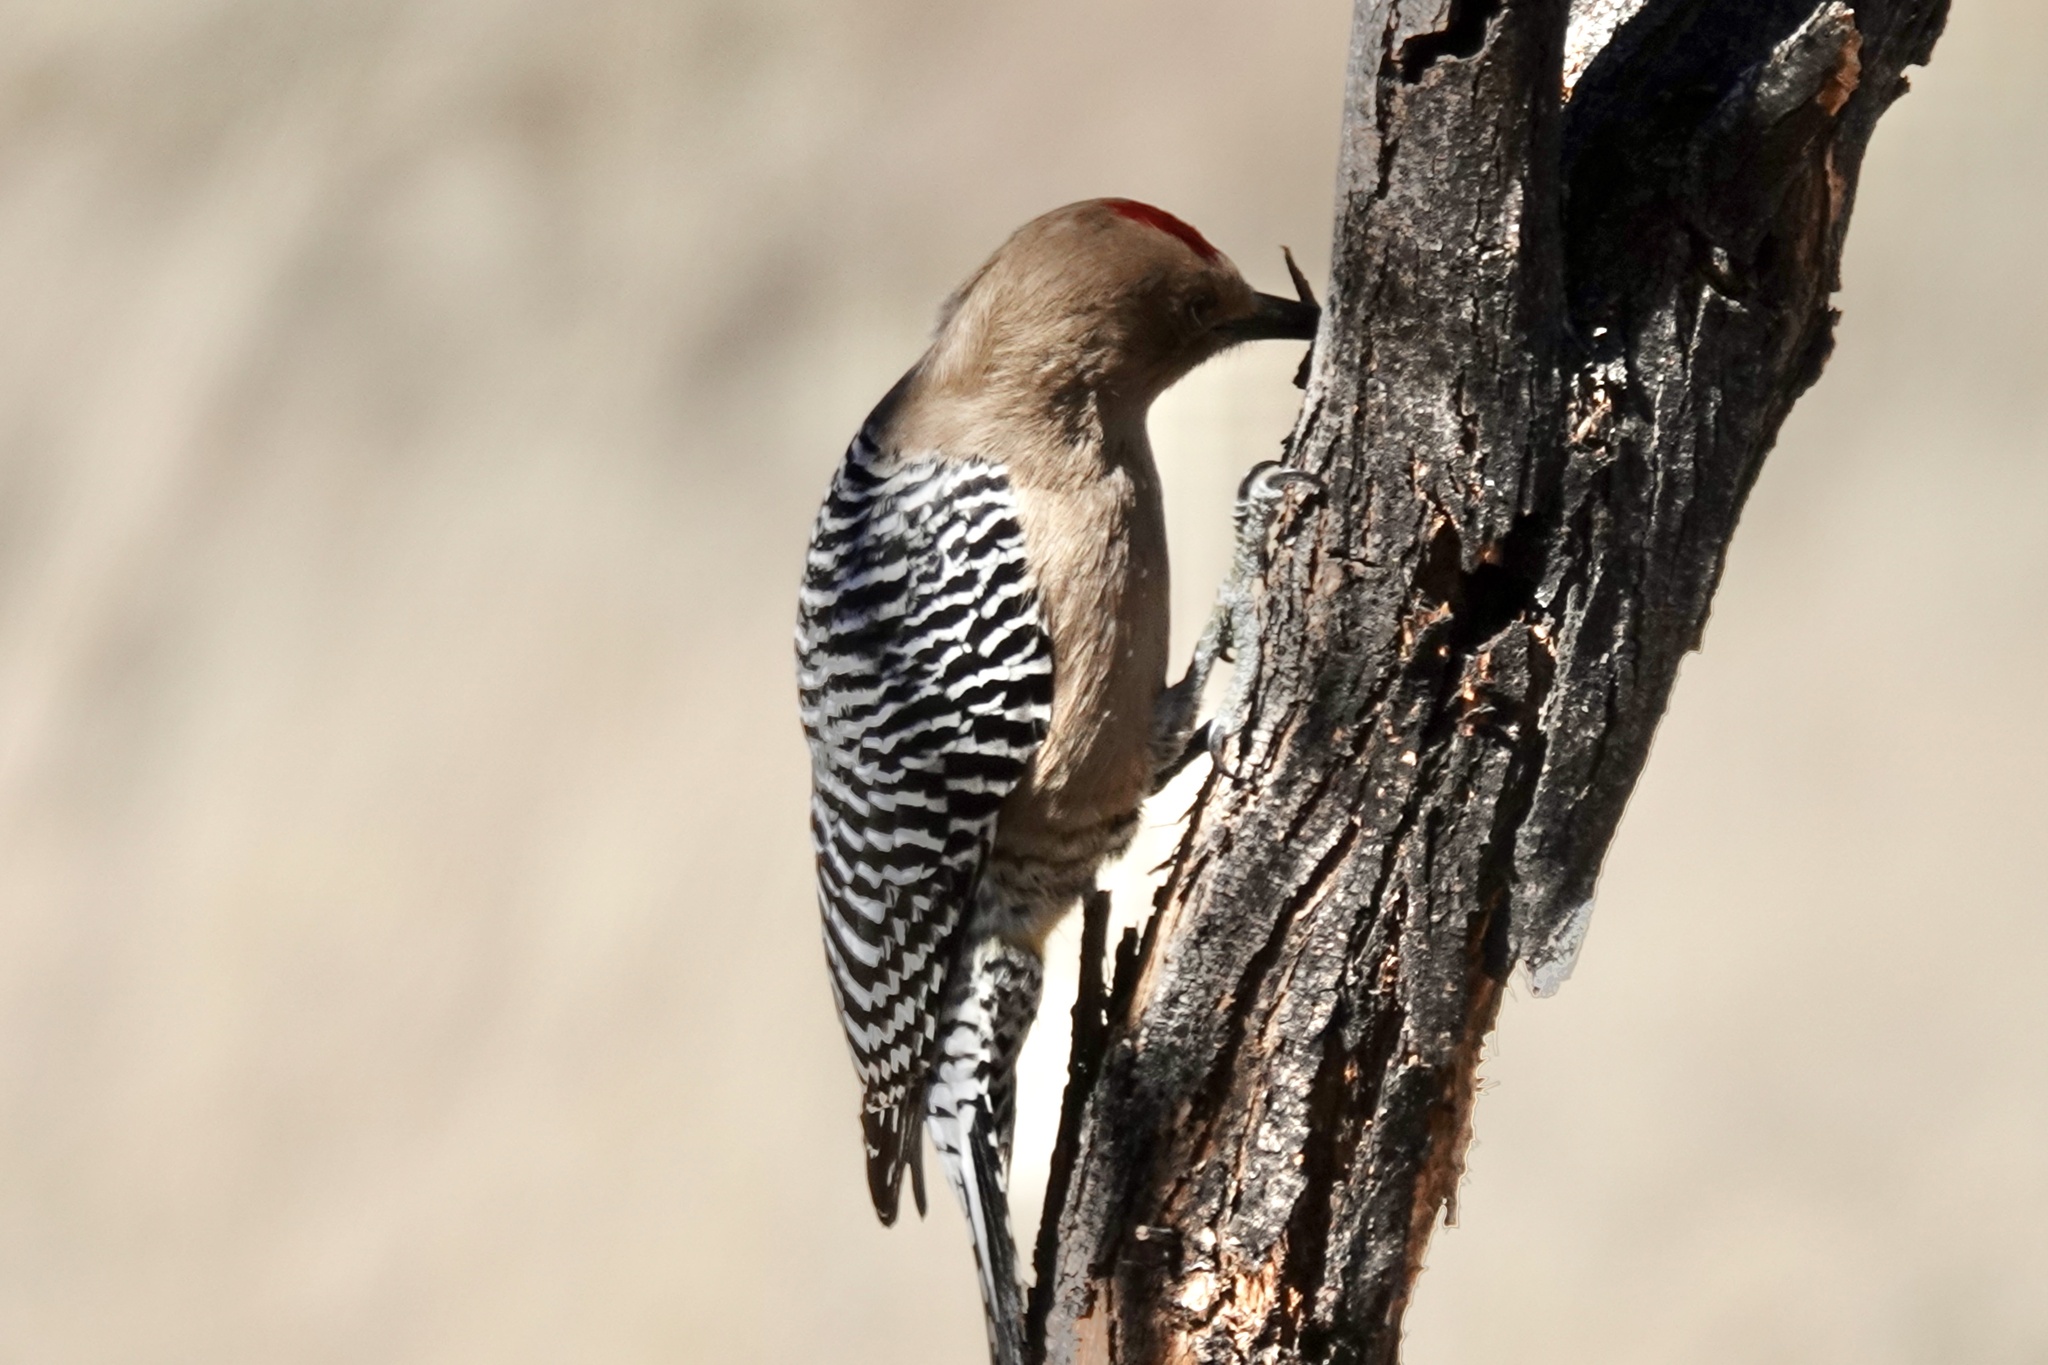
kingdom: Animalia
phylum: Chordata
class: Aves
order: Piciformes
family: Picidae
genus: Melanerpes
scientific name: Melanerpes uropygialis
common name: Gila woodpecker
